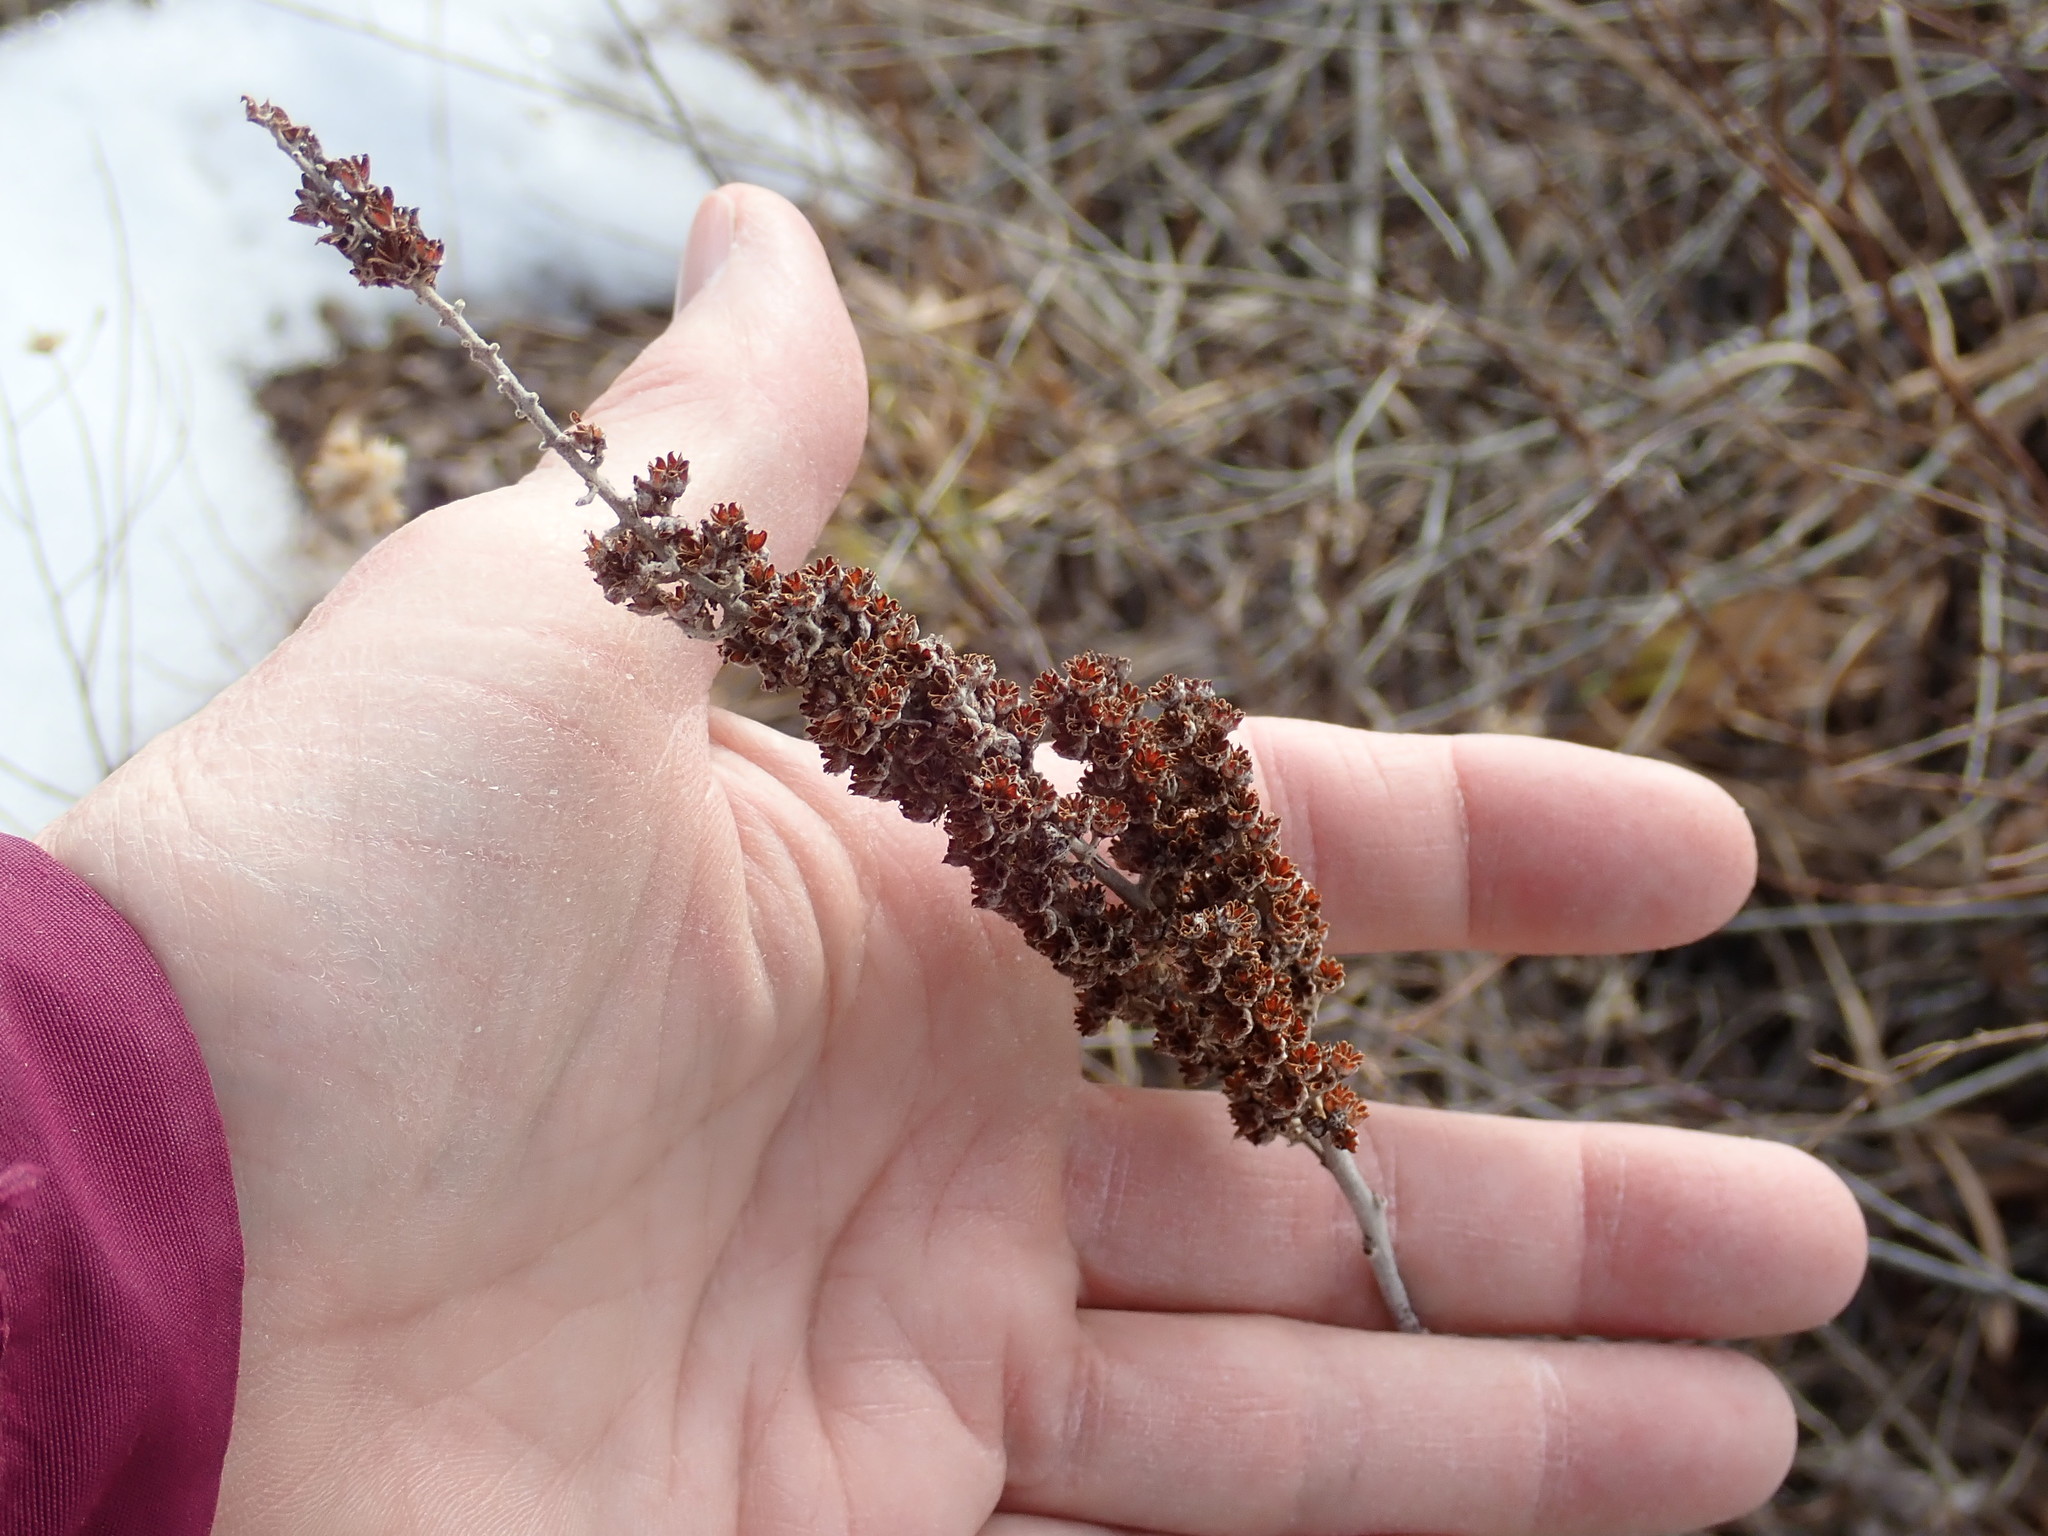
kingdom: Plantae
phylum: Tracheophyta
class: Magnoliopsida
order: Rosales
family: Rosaceae
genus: Spiraea
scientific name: Spiraea tomentosa
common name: Hardhack
